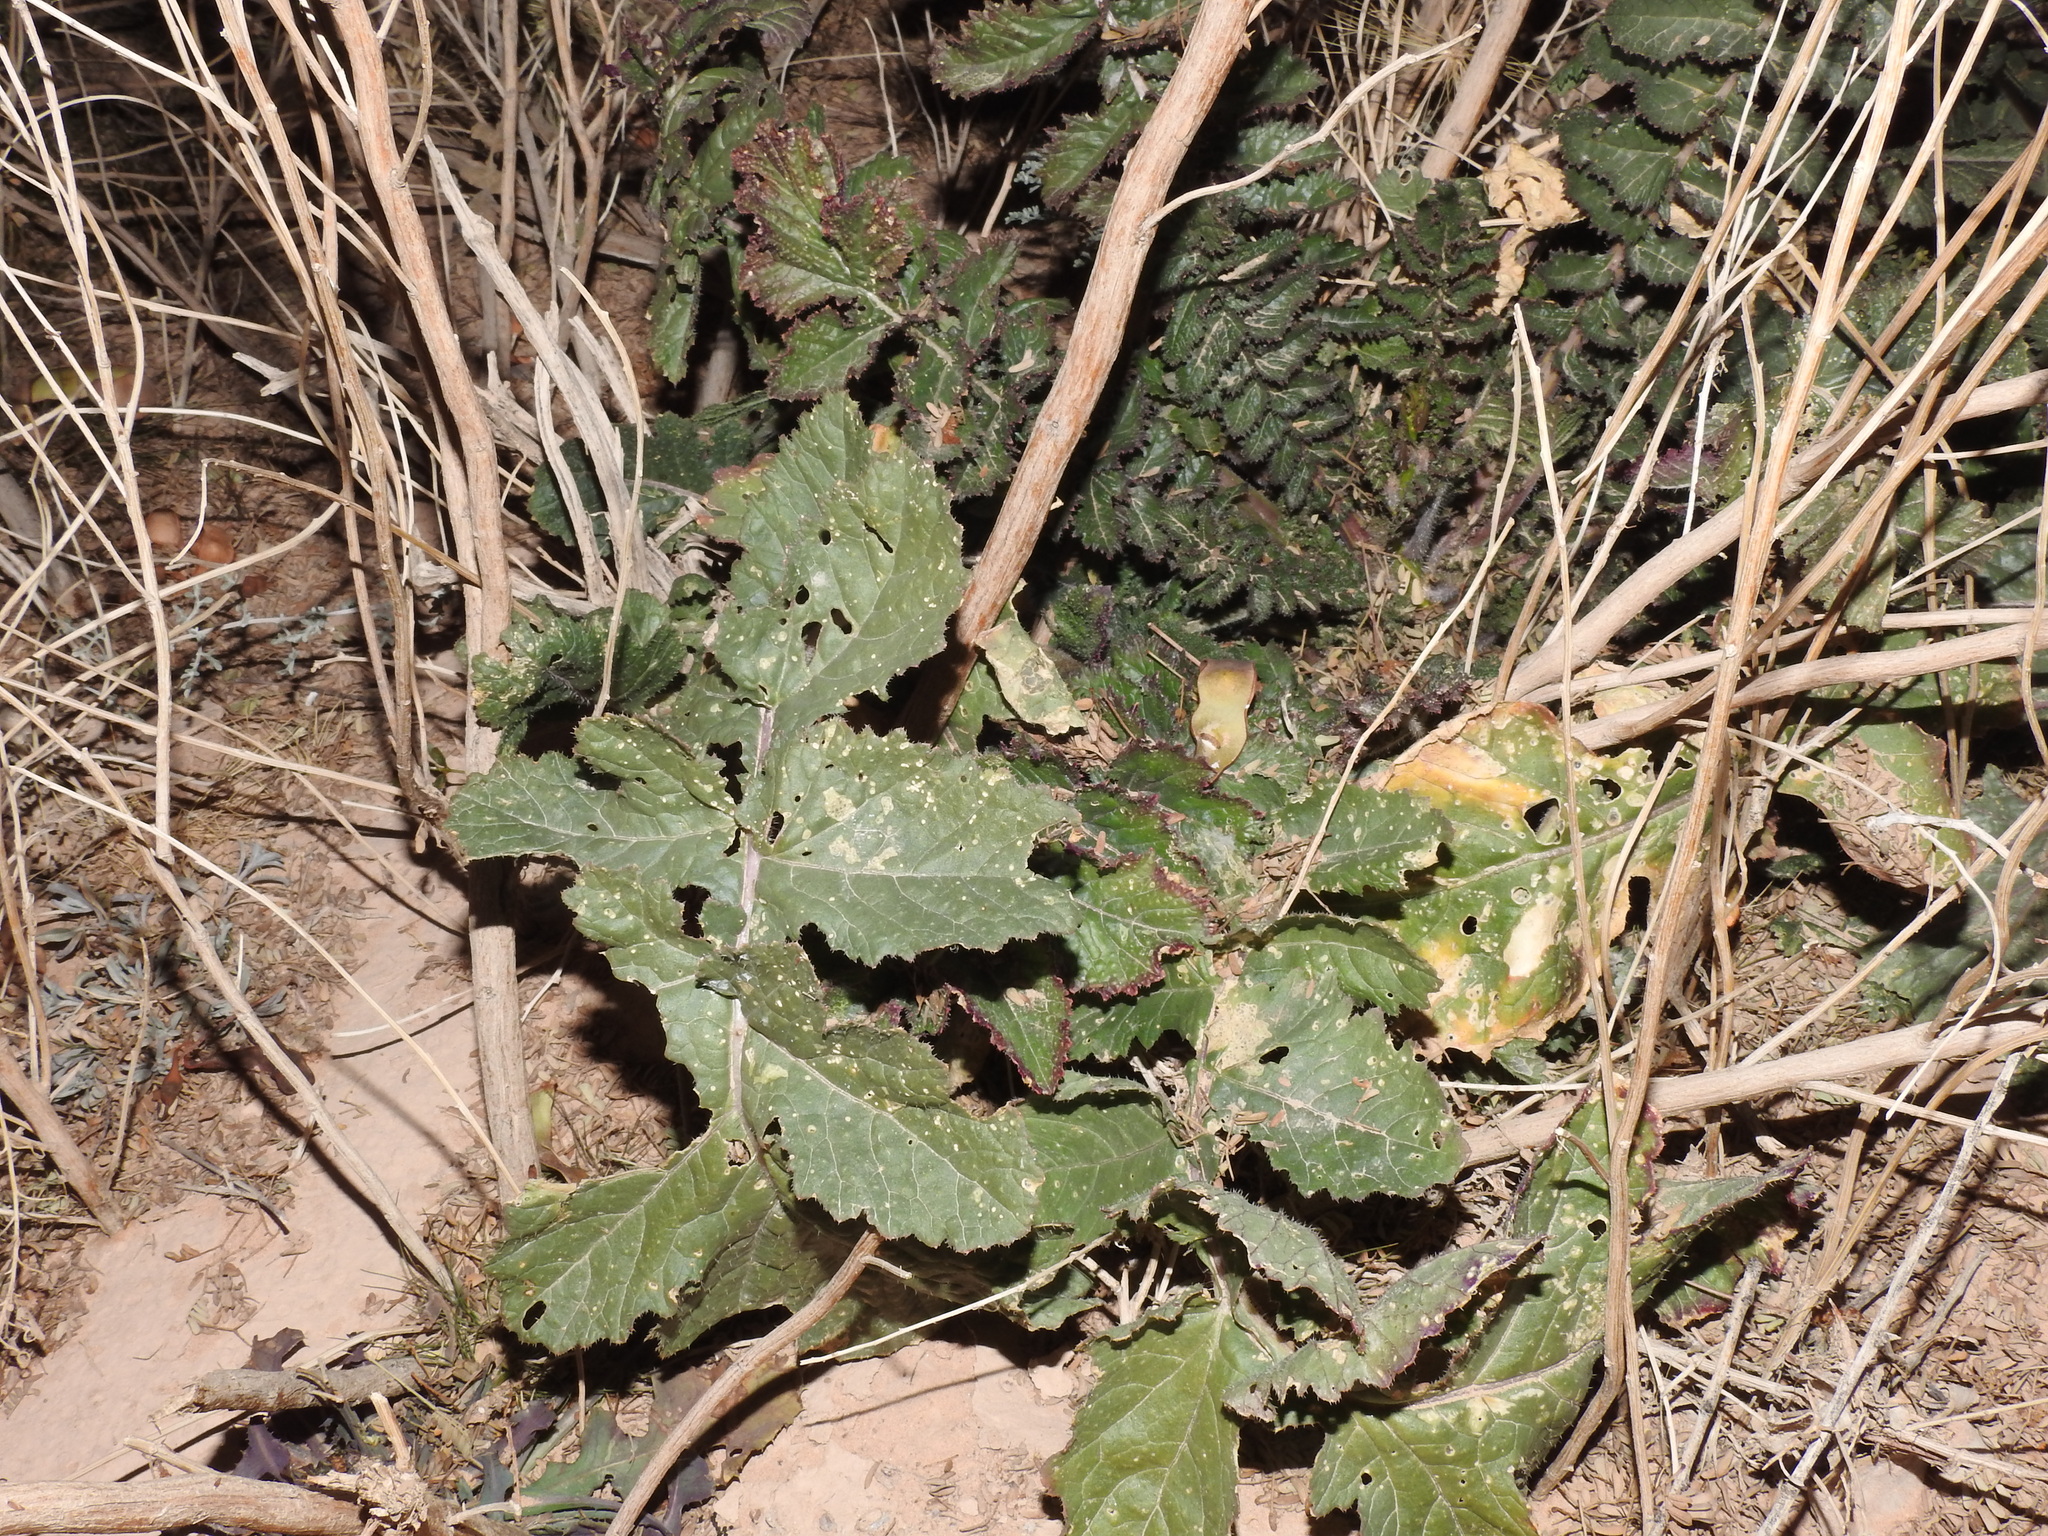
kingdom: Plantae
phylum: Tracheophyta
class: Magnoliopsida
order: Brassicales
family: Brassicaceae
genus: Brassica
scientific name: Brassica tournefortii
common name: Pale cabbage
